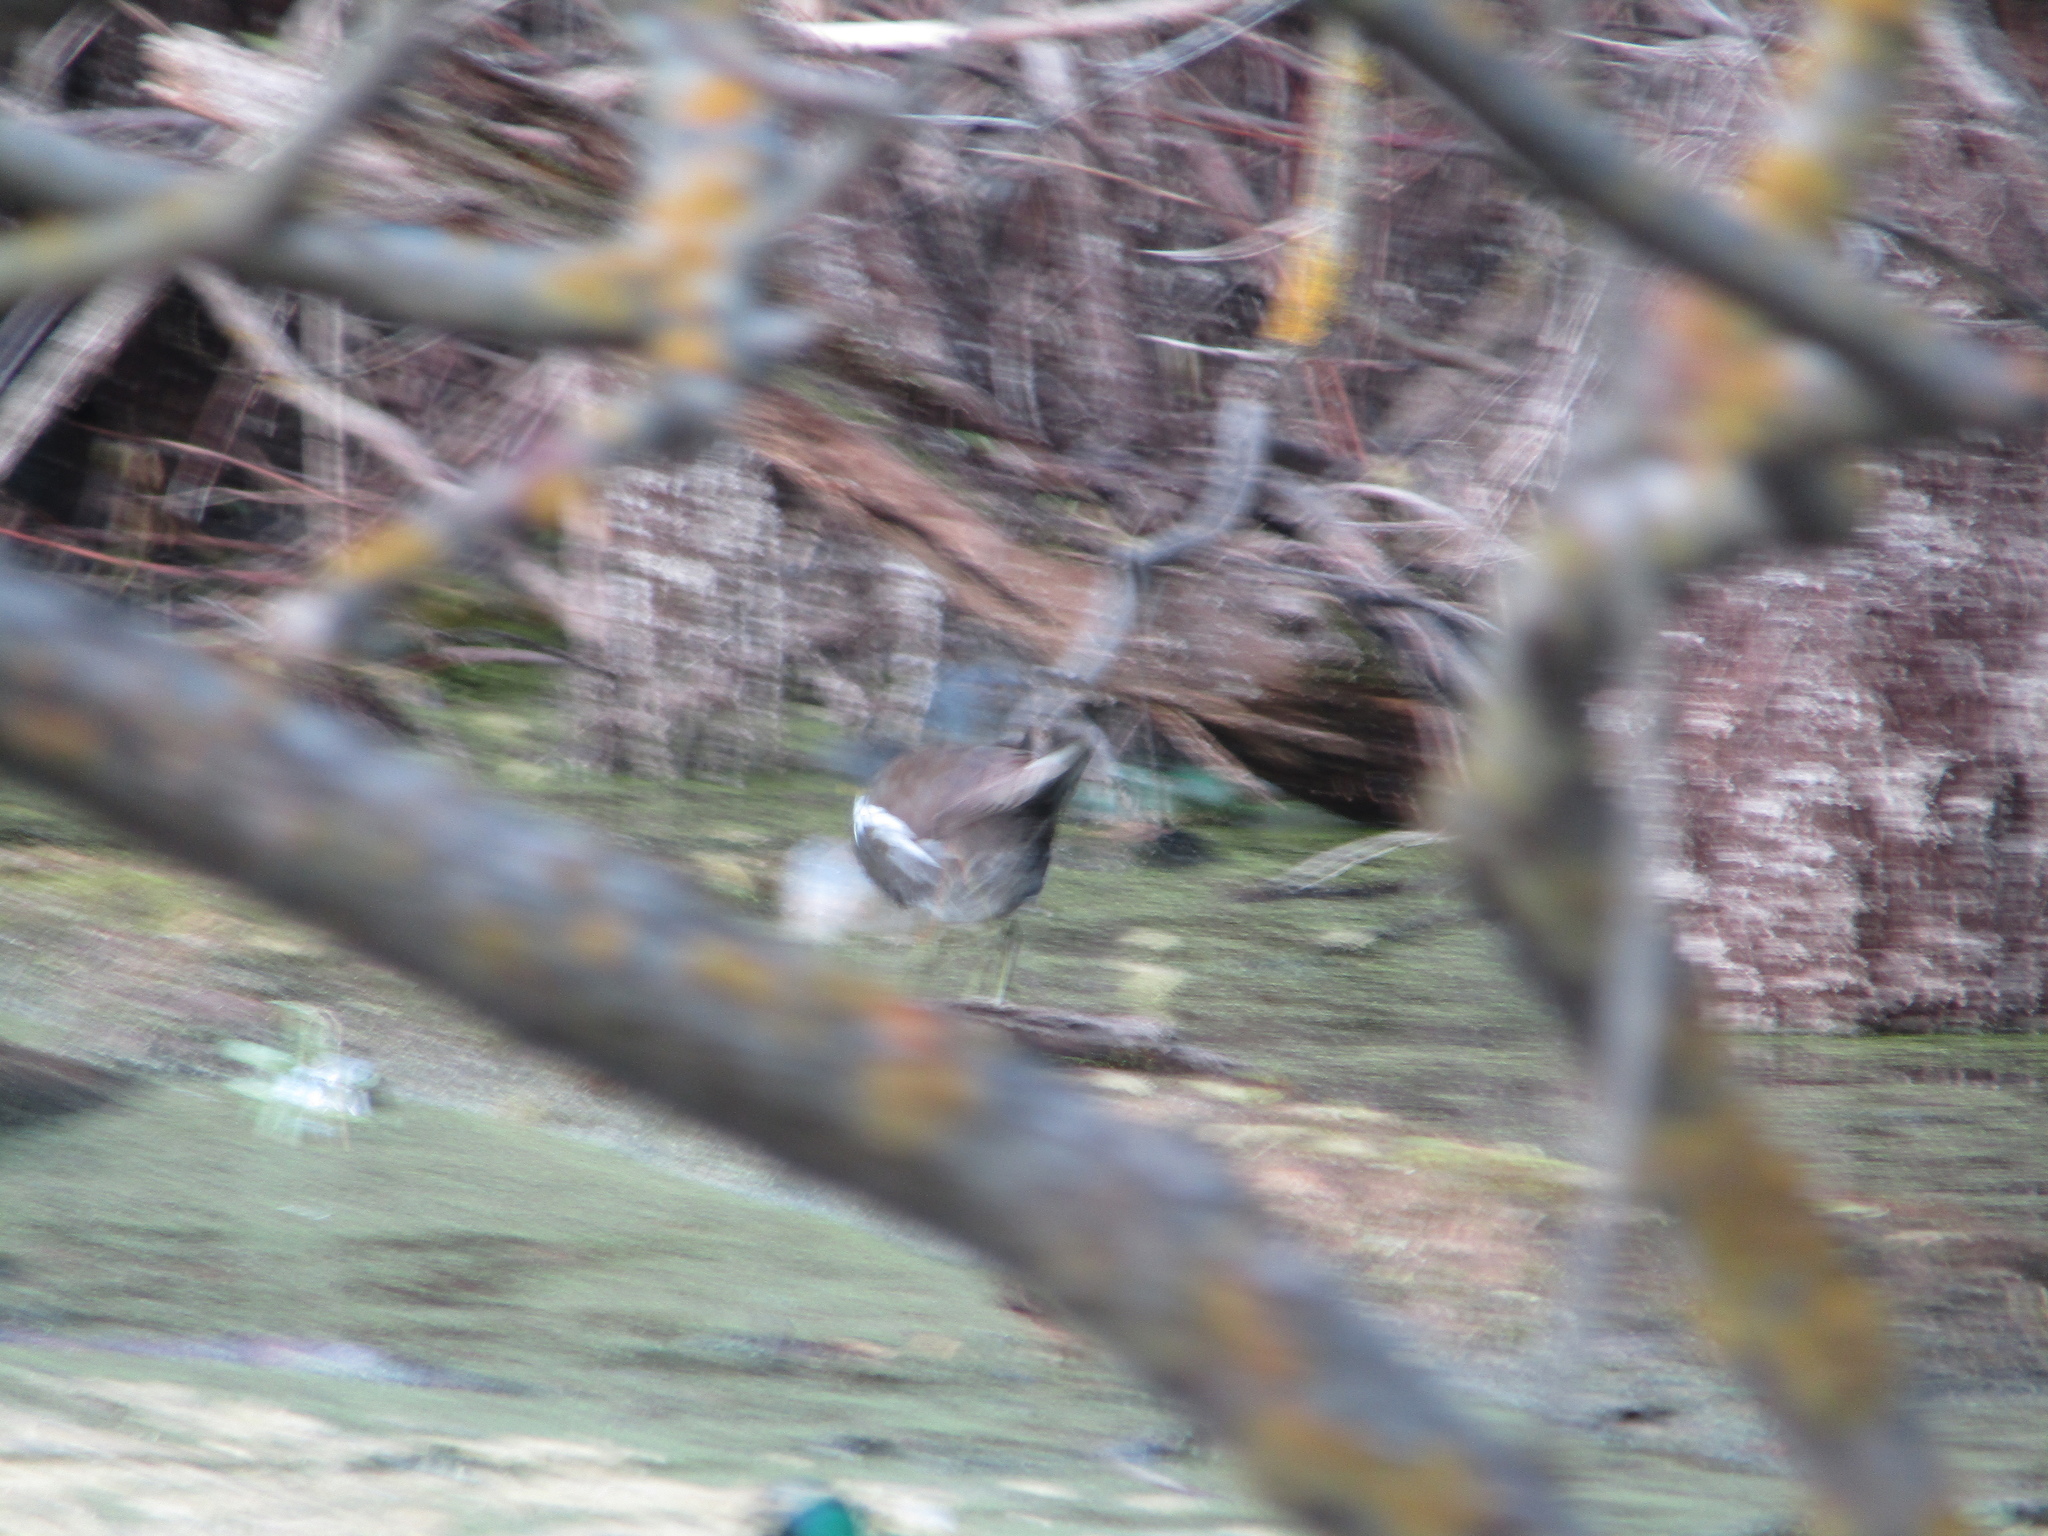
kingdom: Animalia
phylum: Chordata
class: Aves
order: Gruiformes
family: Rallidae
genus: Gallinula
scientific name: Gallinula chloropus
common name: Common moorhen
